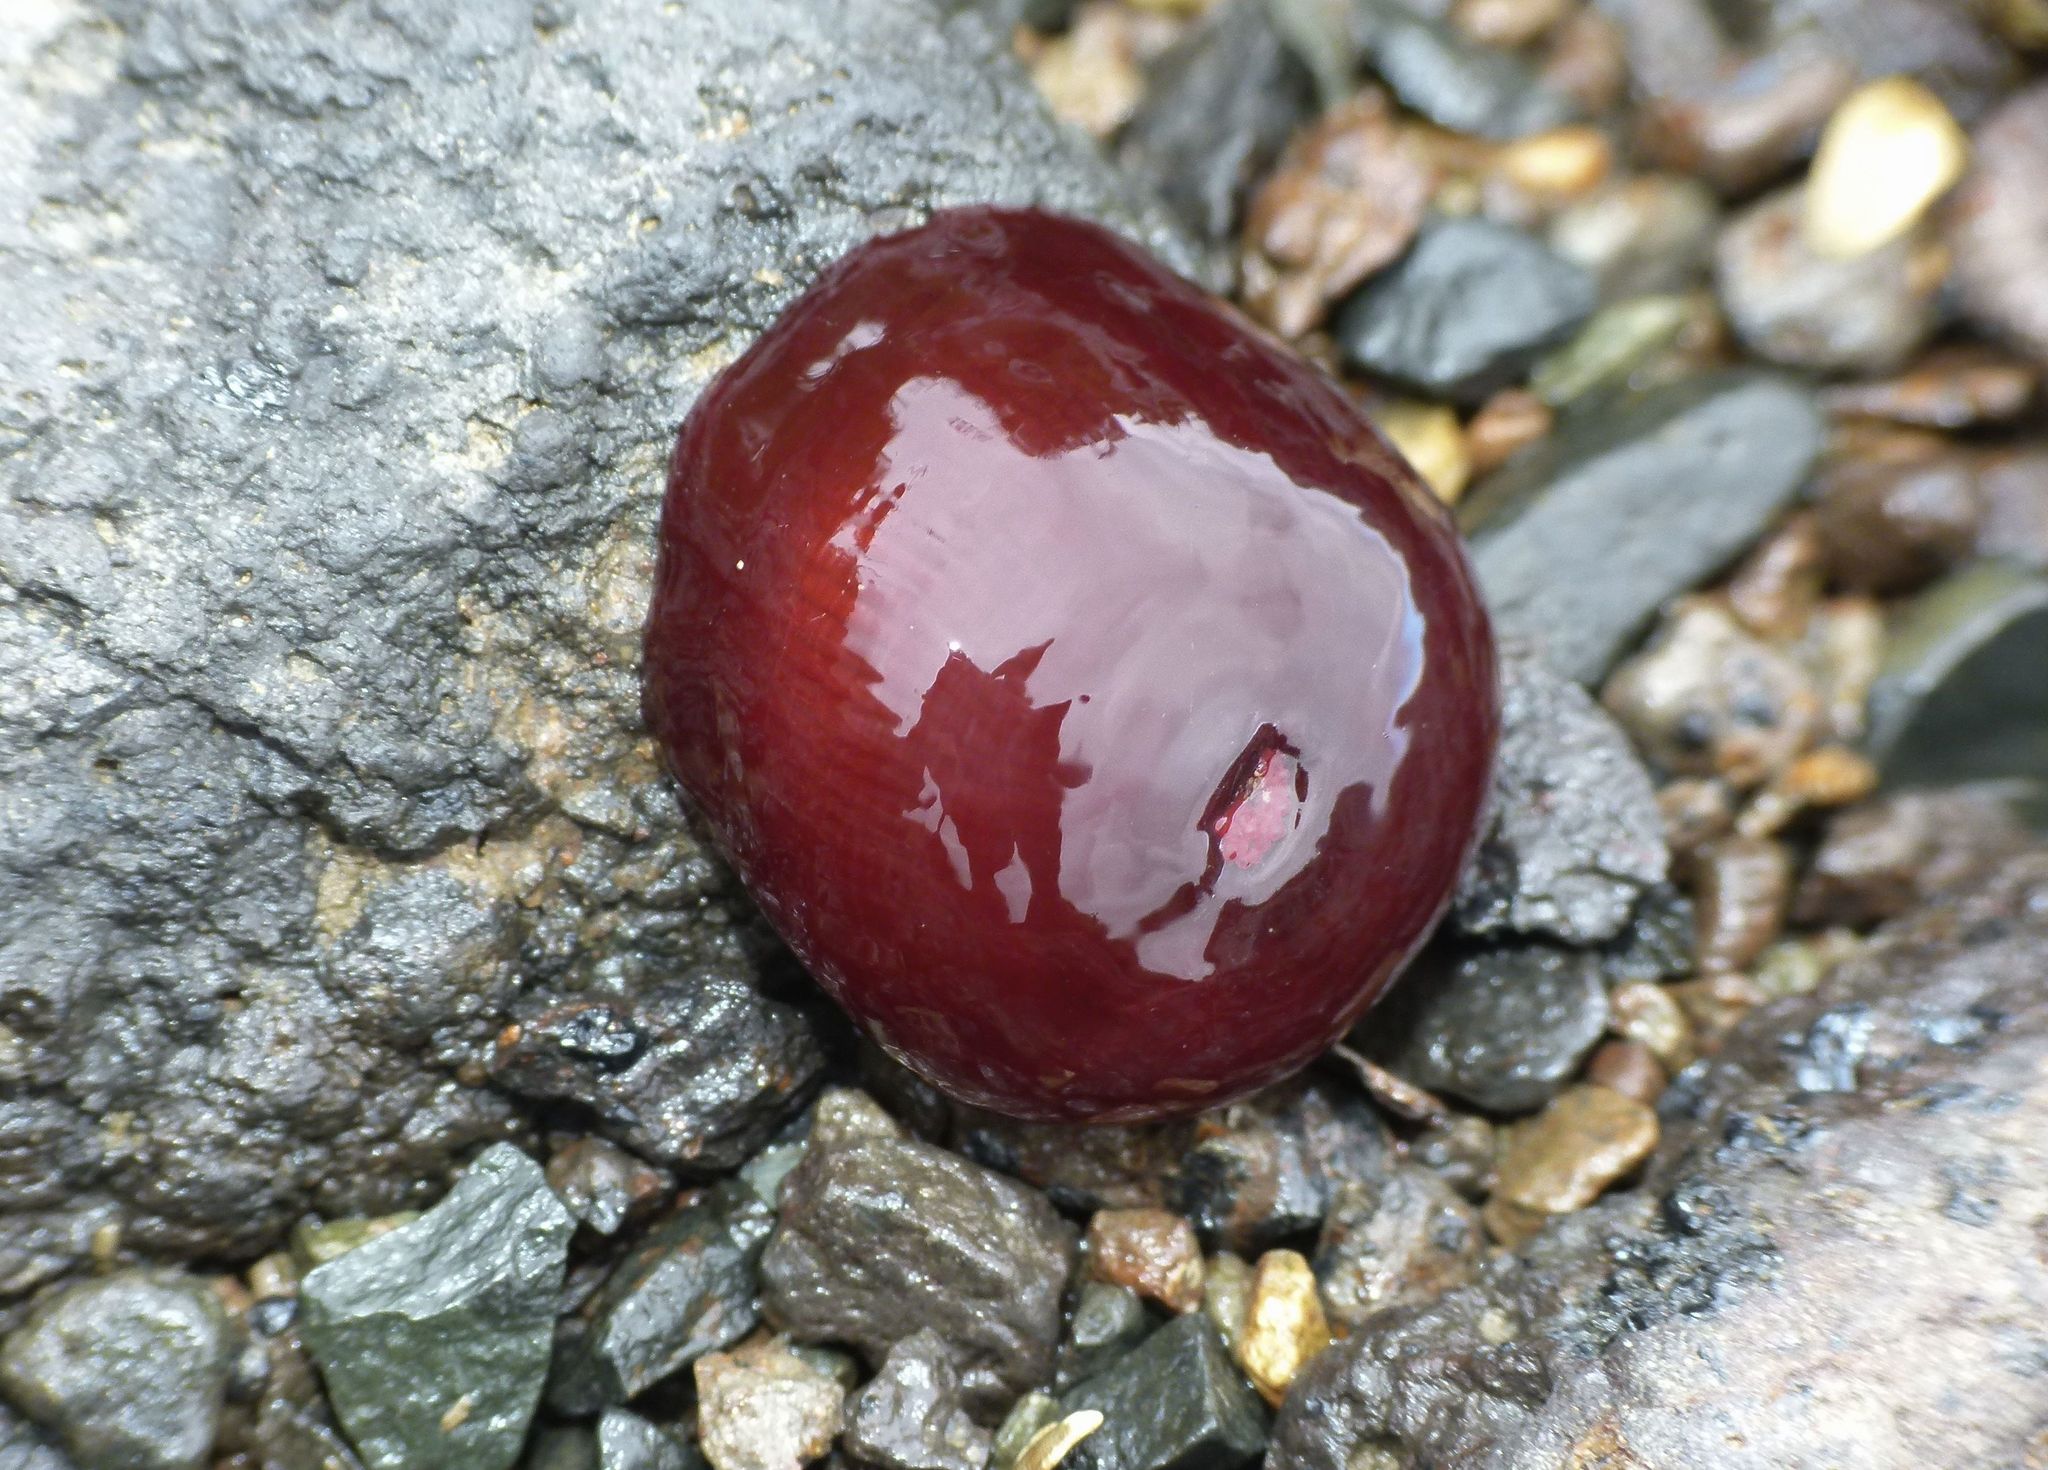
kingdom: Animalia
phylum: Cnidaria
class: Anthozoa
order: Actiniaria
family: Actiniidae
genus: Actinia
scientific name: Actinia tenebrosa
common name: Waratah anemone
